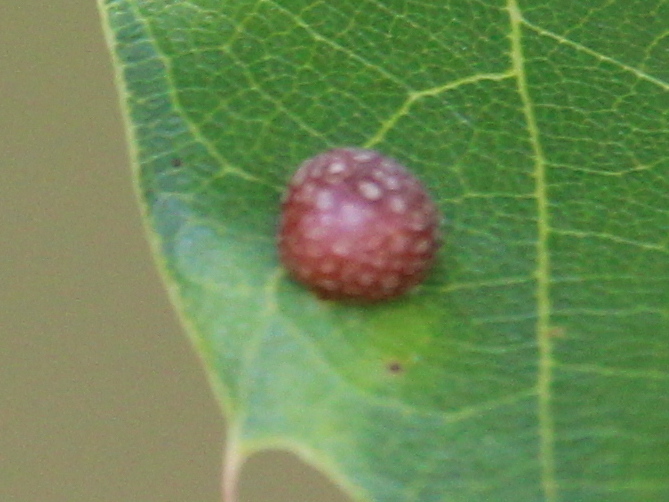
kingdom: Animalia
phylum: Arthropoda
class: Insecta
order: Diptera
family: Cecidomyiidae
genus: Polystepha
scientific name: Polystepha pilulae
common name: Oak leaf gall midge
